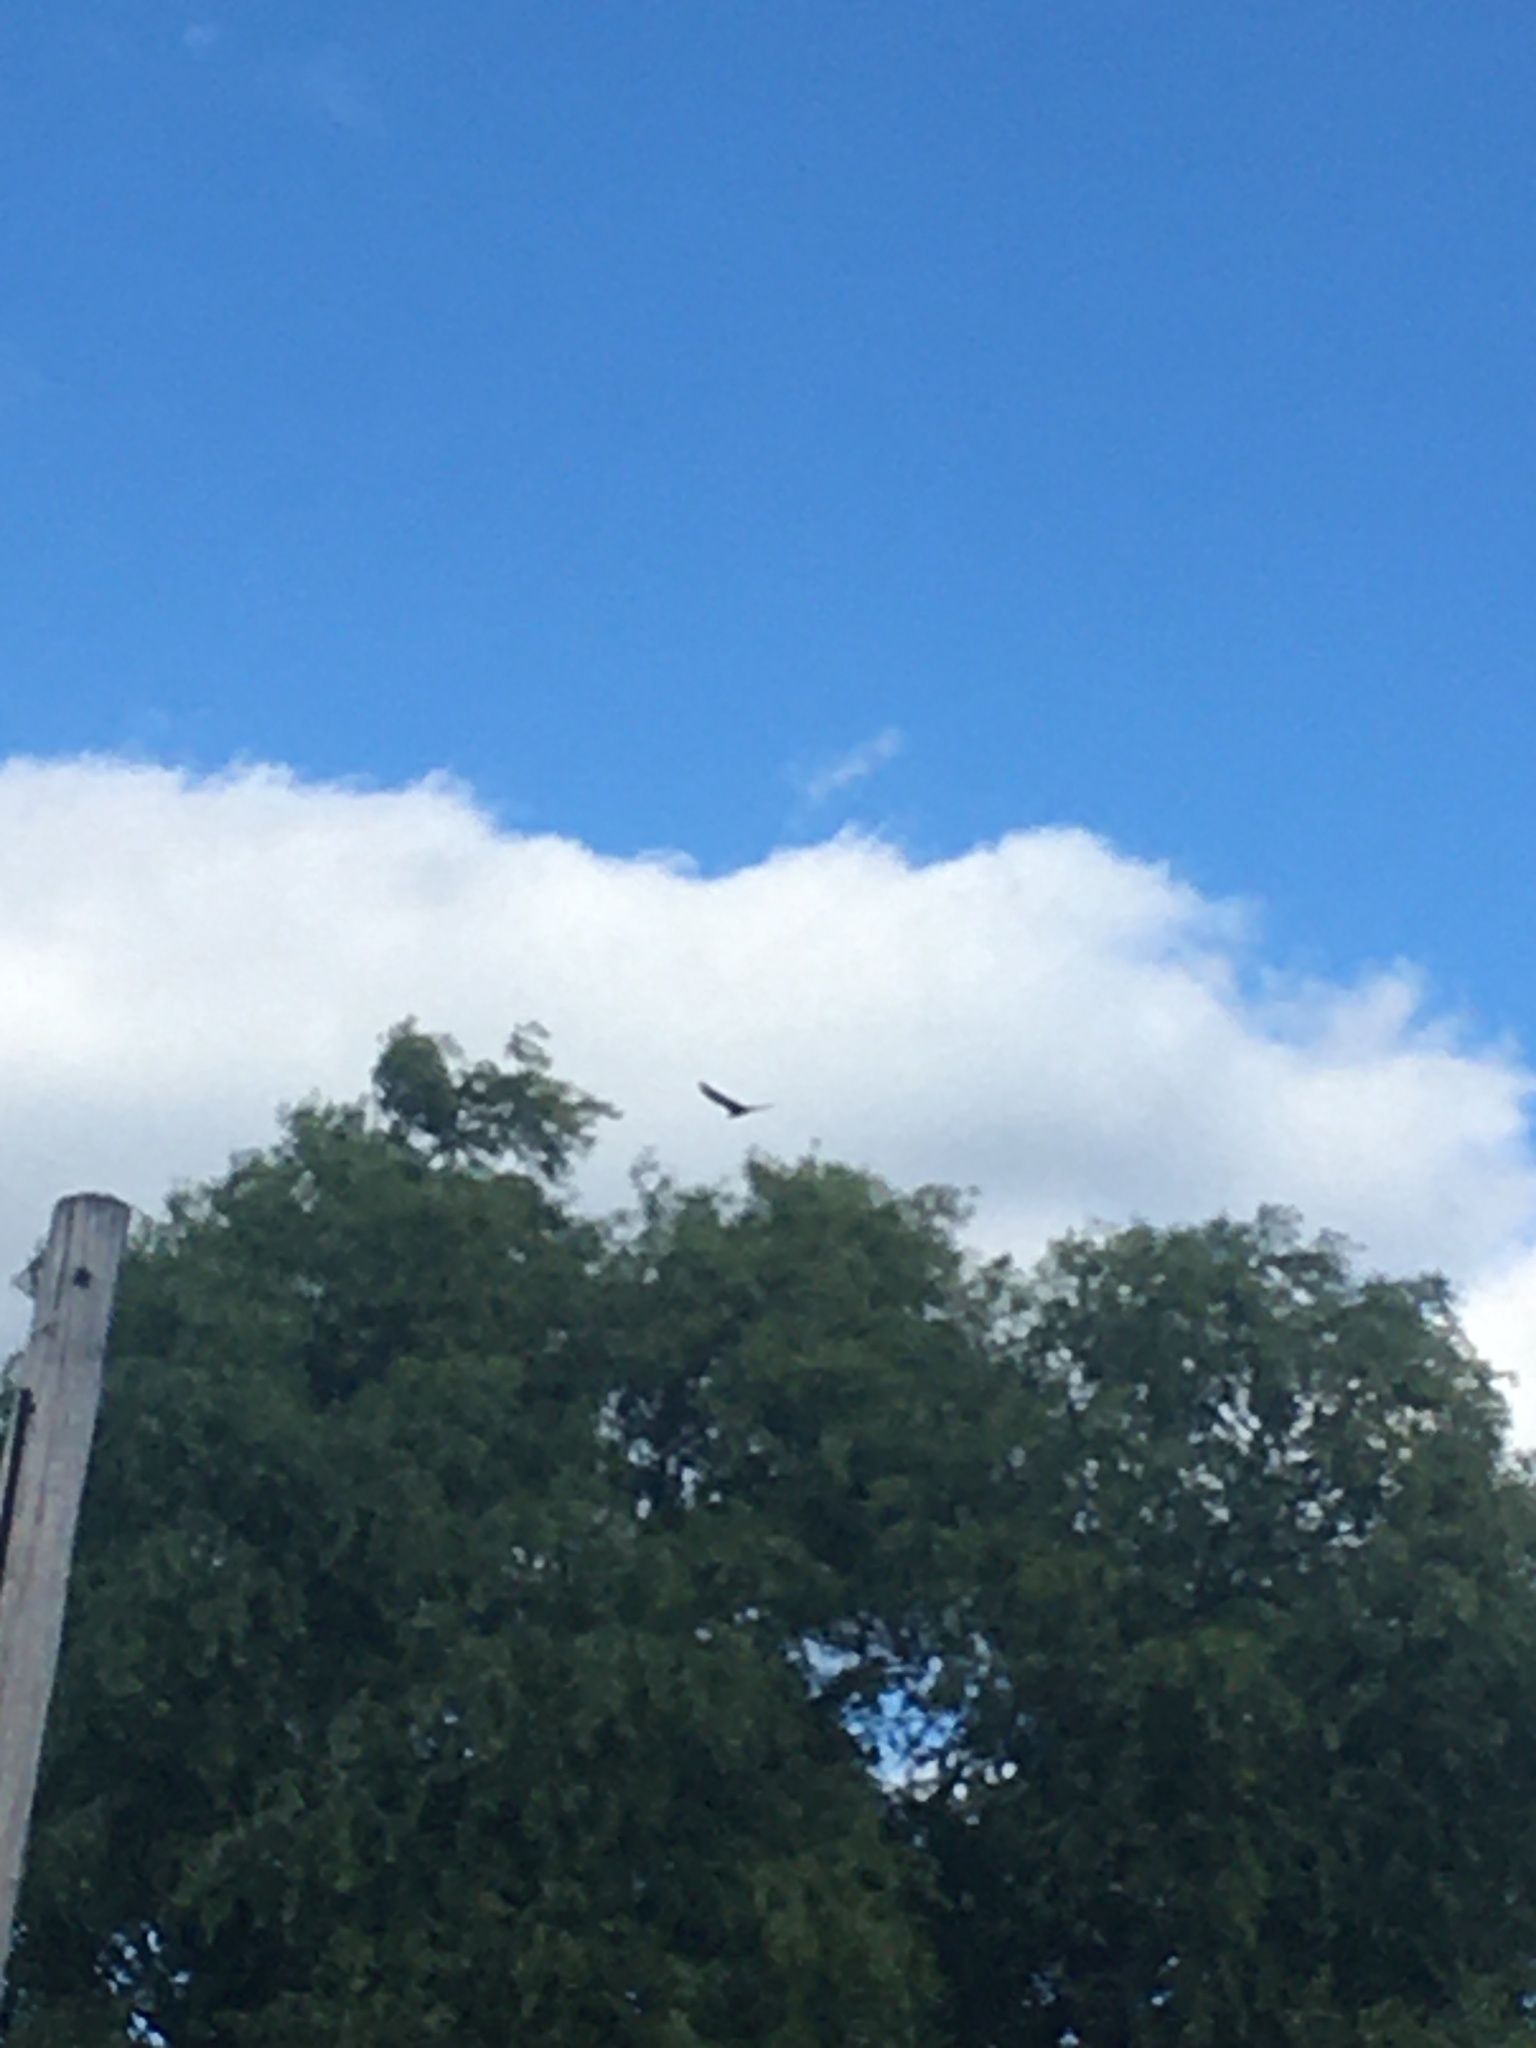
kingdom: Animalia
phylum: Chordata
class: Aves
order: Accipitriformes
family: Cathartidae
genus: Cathartes
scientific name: Cathartes aura
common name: Turkey vulture
